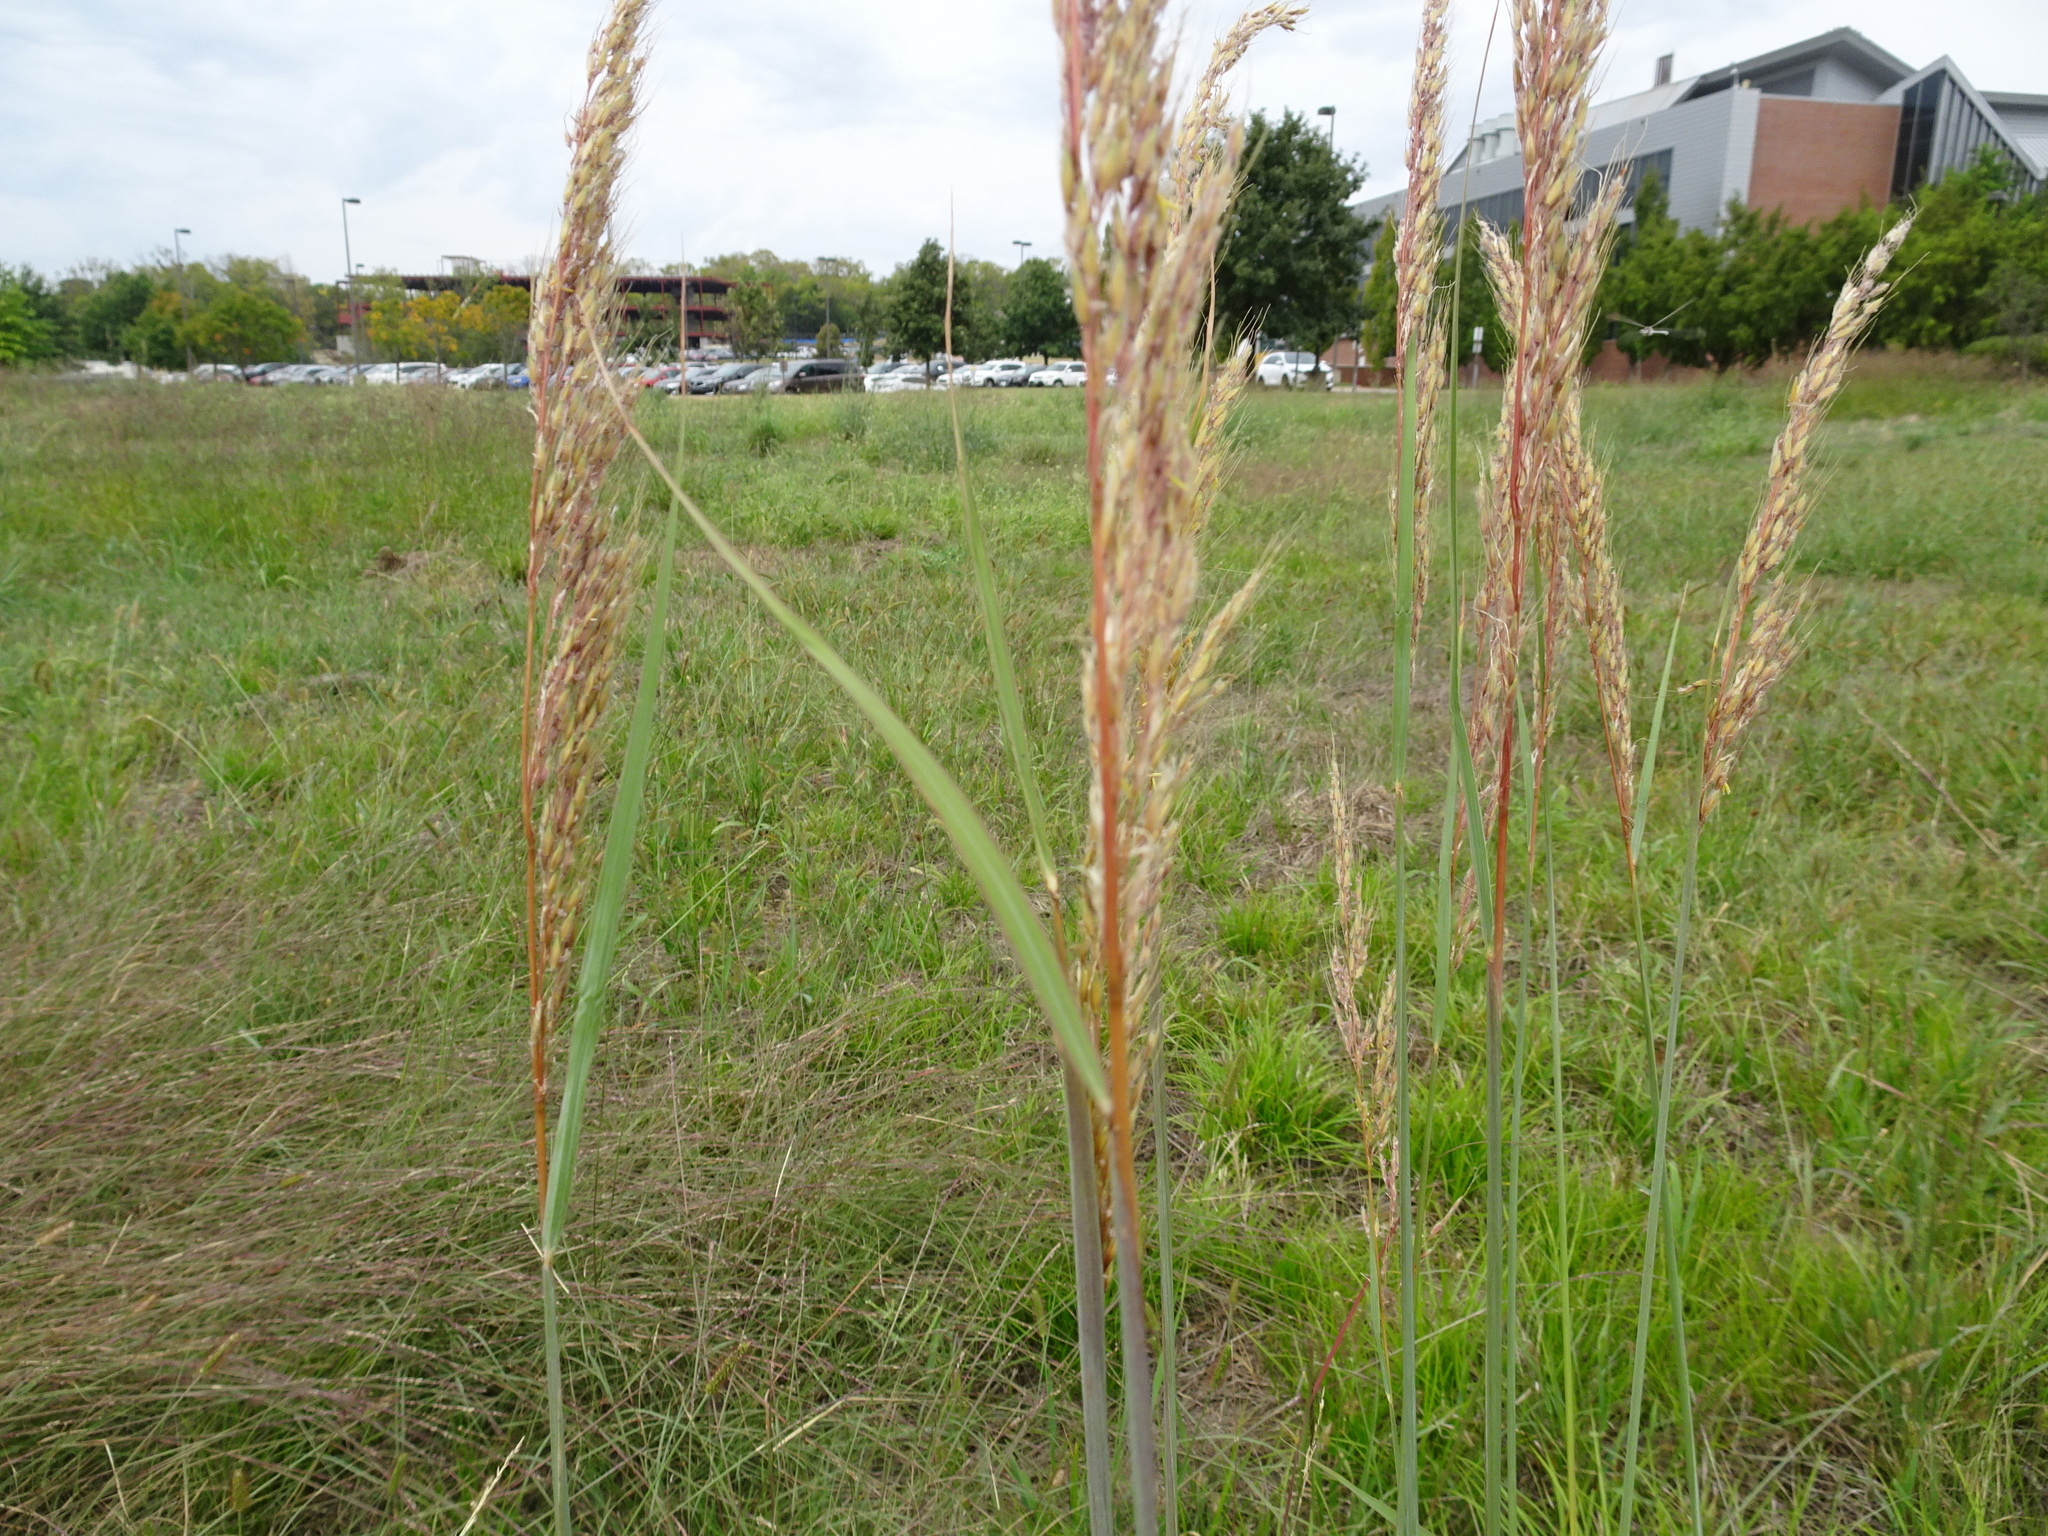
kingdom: Plantae
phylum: Tracheophyta
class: Liliopsida
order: Poales
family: Poaceae
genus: Sorghastrum
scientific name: Sorghastrum nutans
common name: Indian grass
